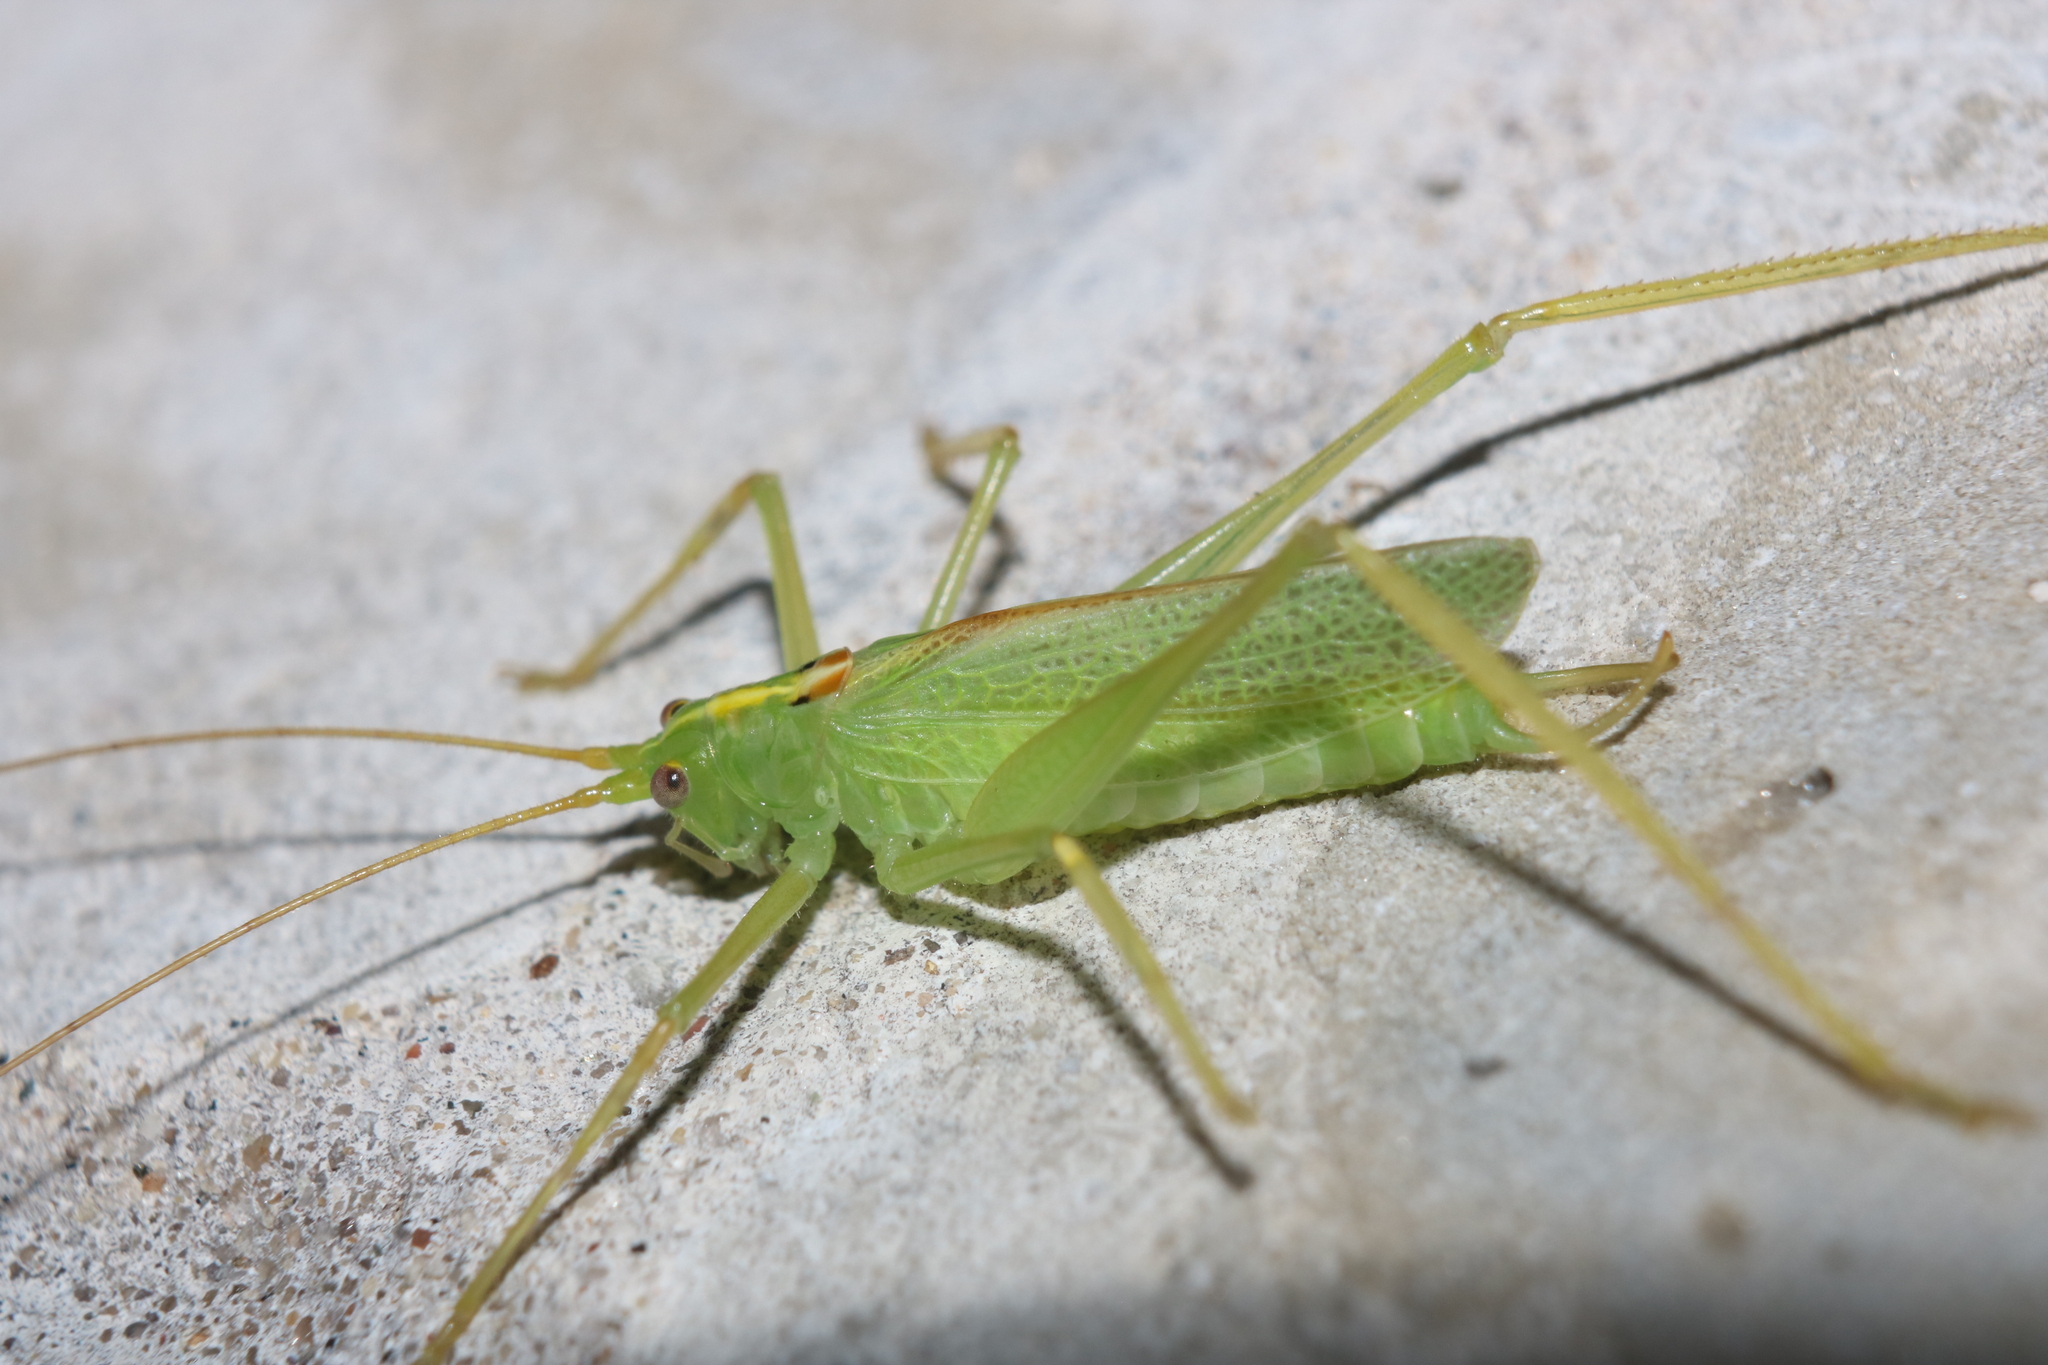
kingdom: Animalia
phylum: Arthropoda
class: Insecta
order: Orthoptera
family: Tettigoniidae
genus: Meconema
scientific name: Meconema thalassinum
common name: Oak bush-cricket
